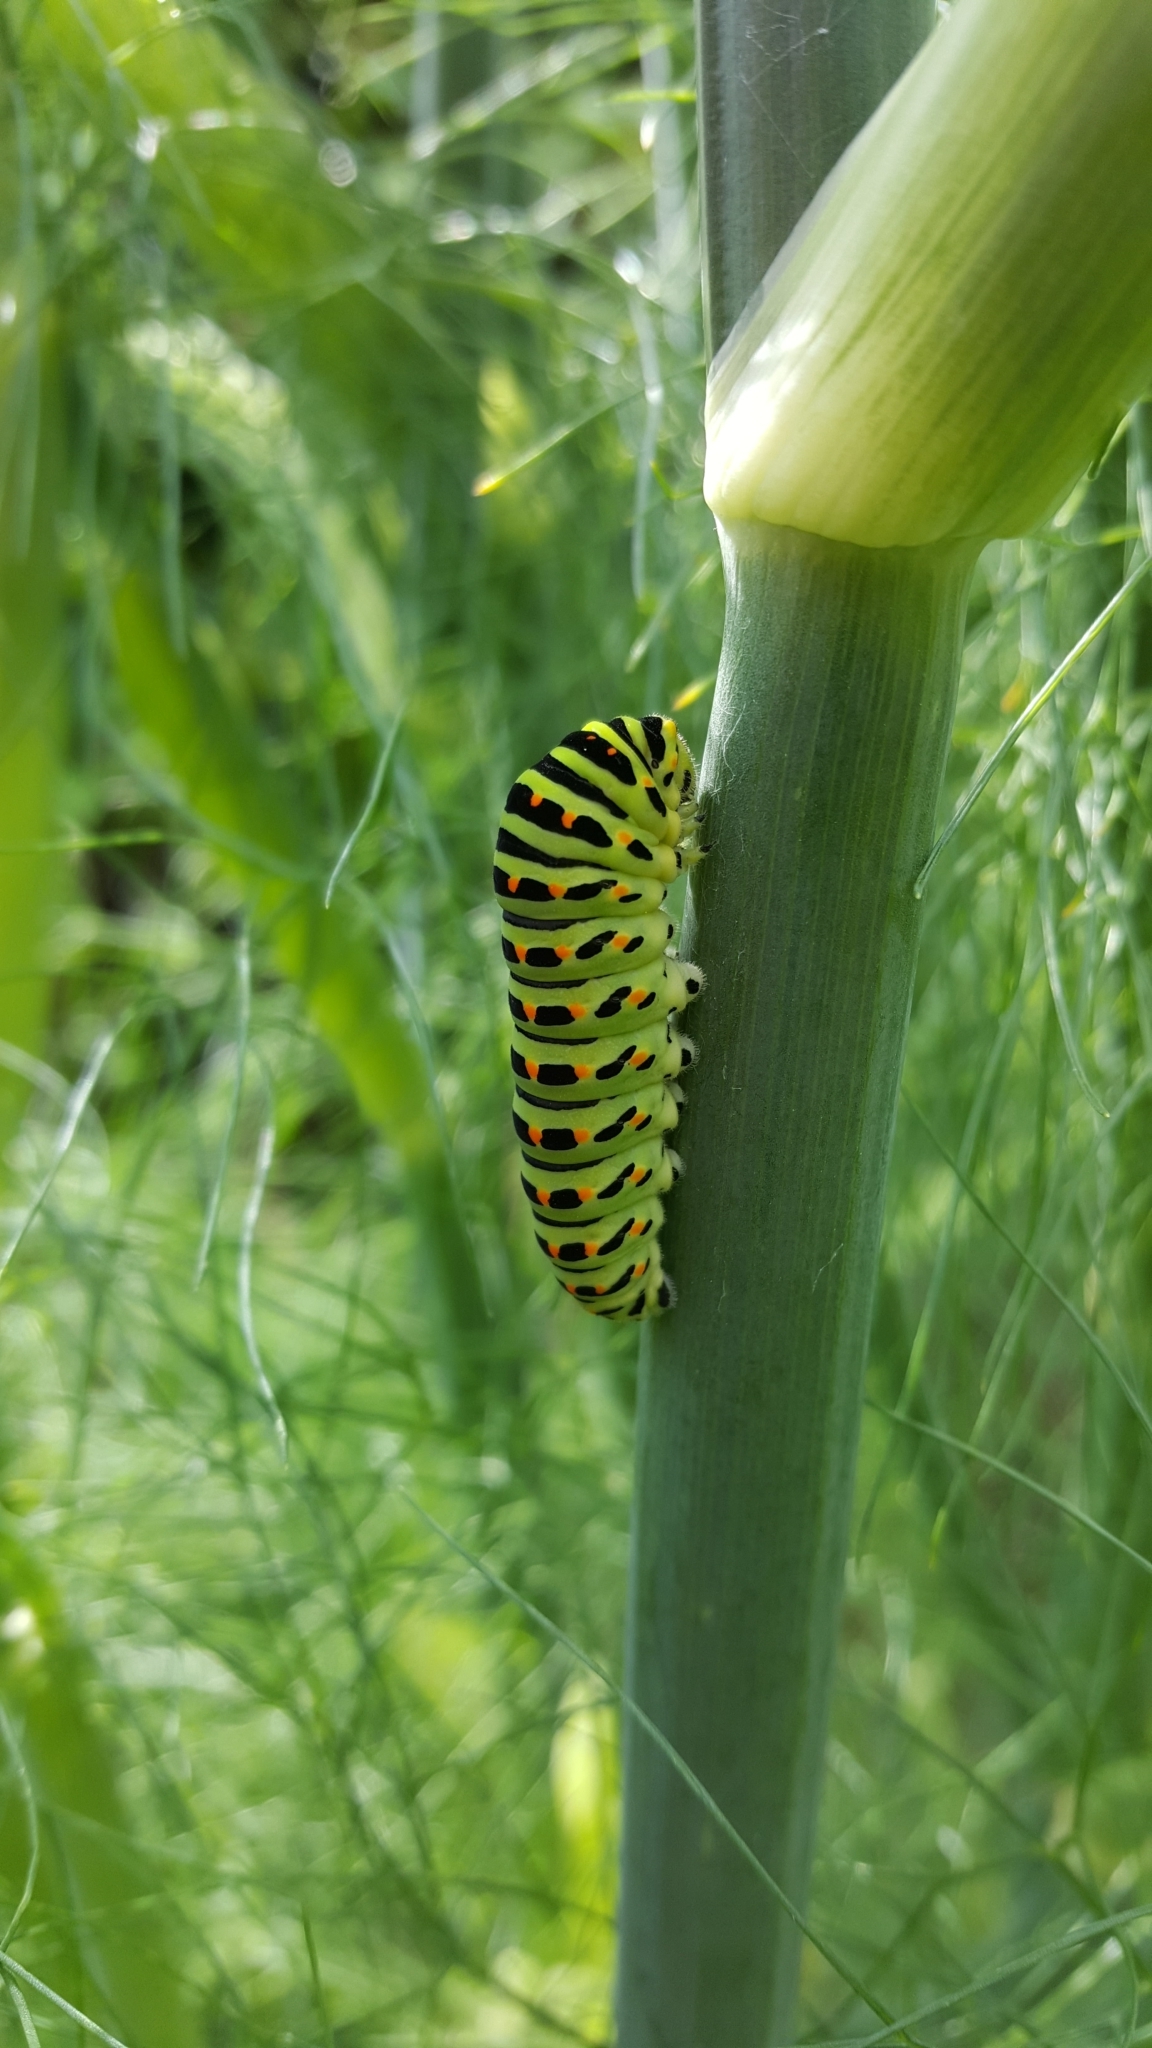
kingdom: Animalia
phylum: Arthropoda
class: Insecta
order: Lepidoptera
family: Papilionidae
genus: Papilio
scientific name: Papilio machaon
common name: Swallowtail
